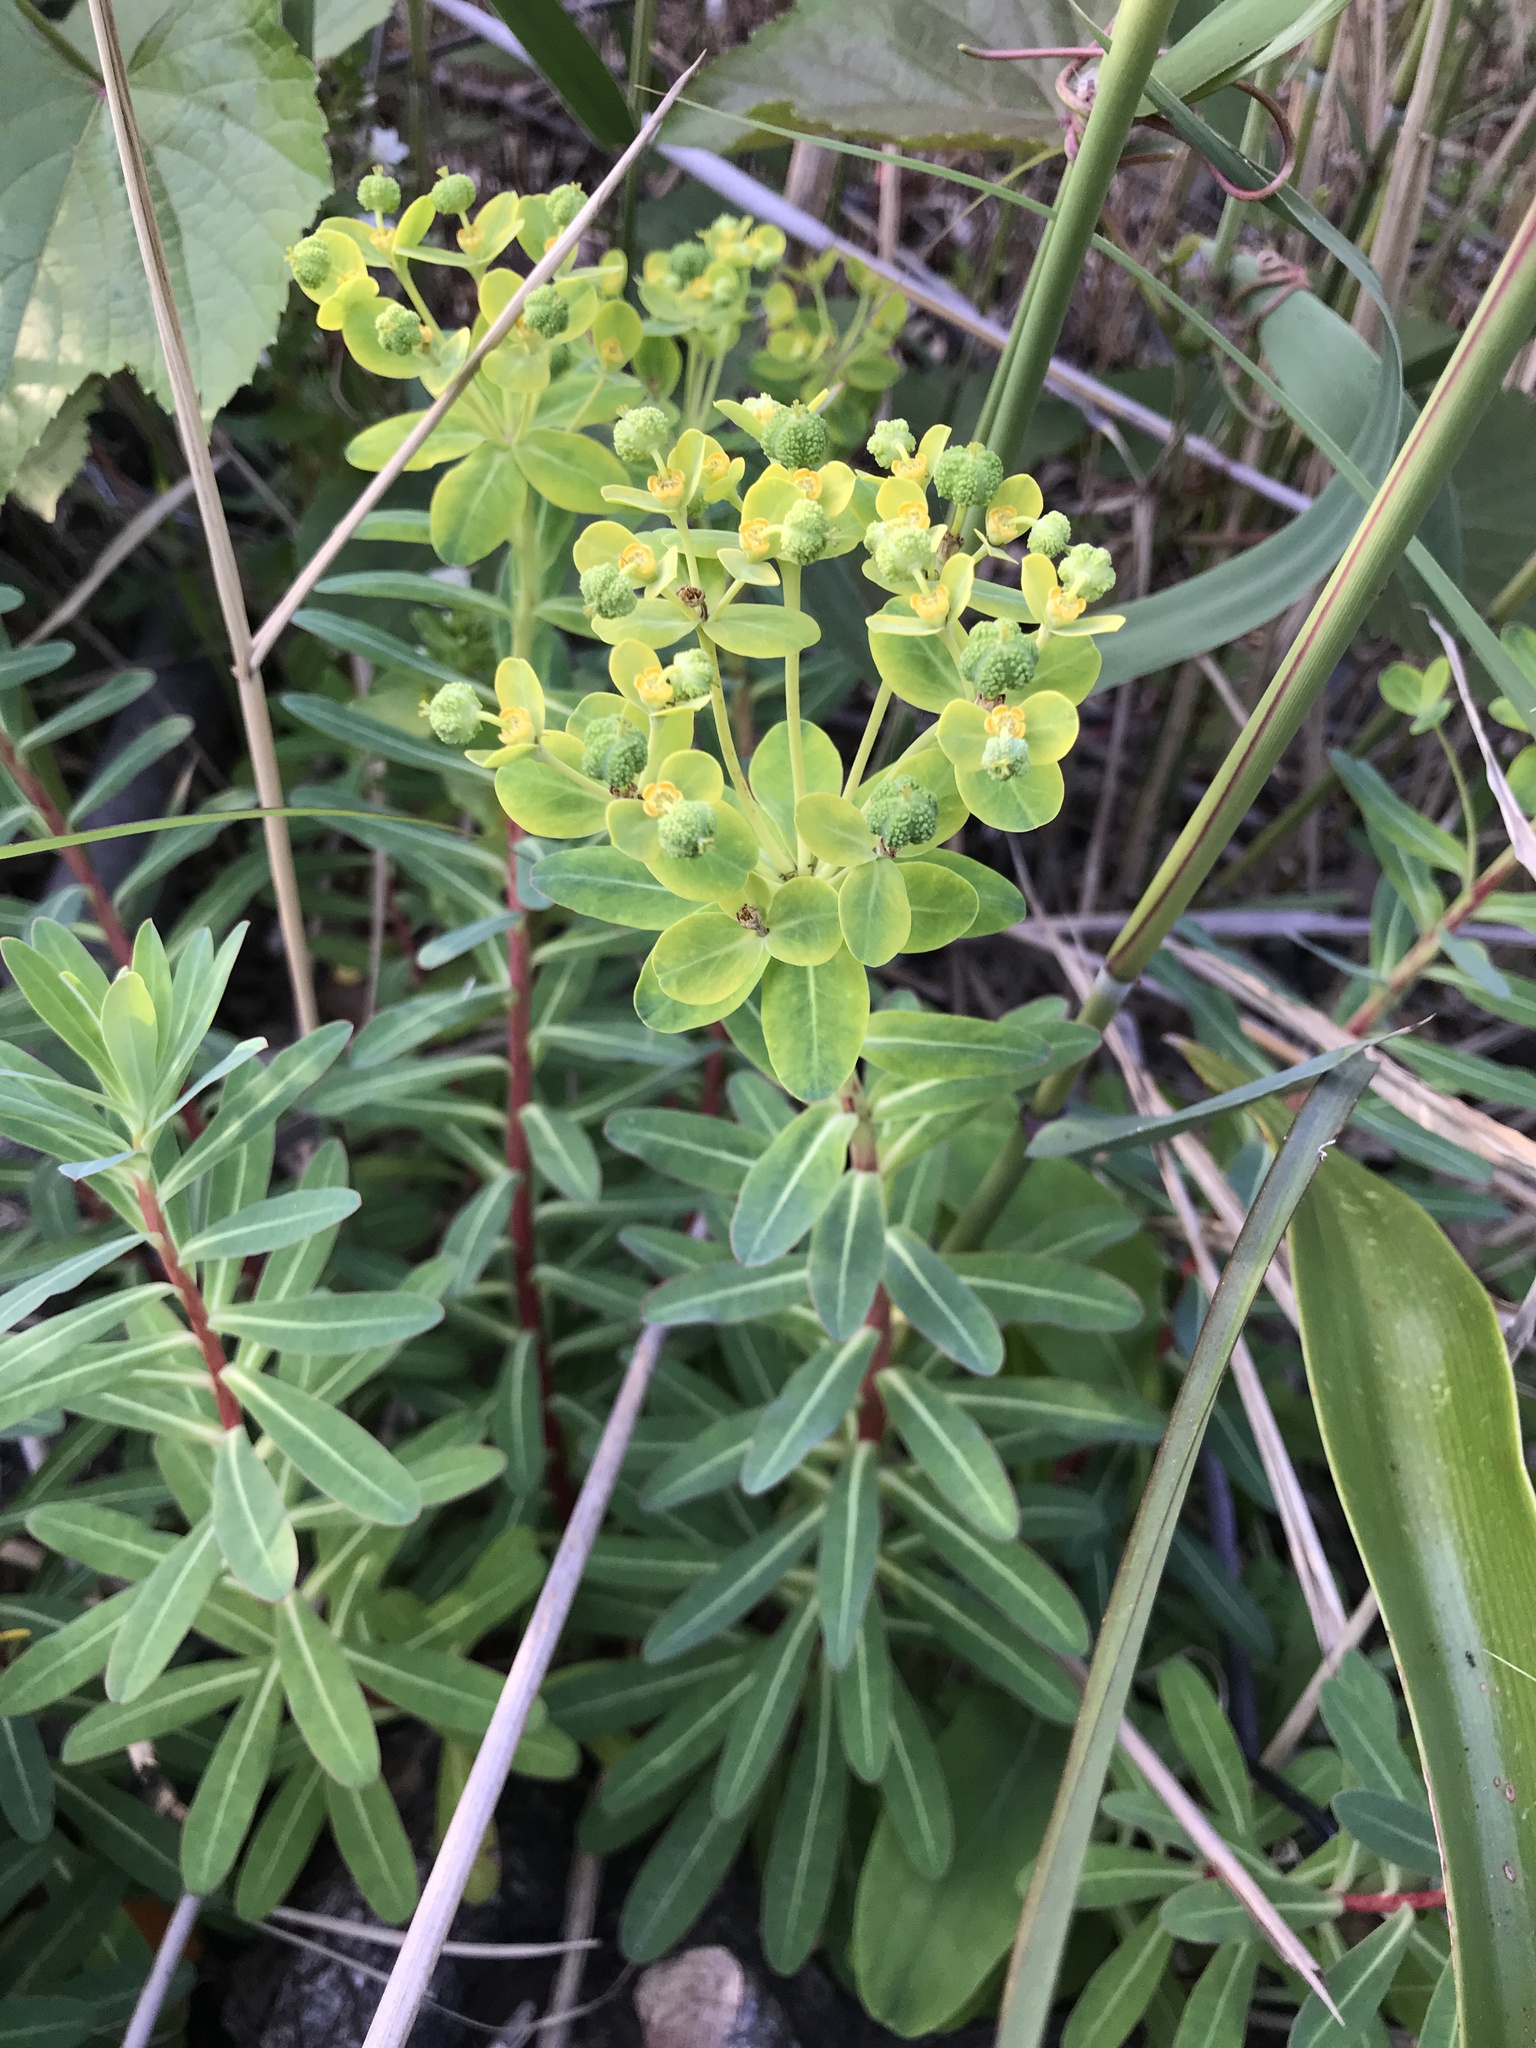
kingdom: Plantae
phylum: Tracheophyta
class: Magnoliopsida
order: Malpighiales
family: Euphorbiaceae
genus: Euphorbia
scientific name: Euphorbia jolkinii
